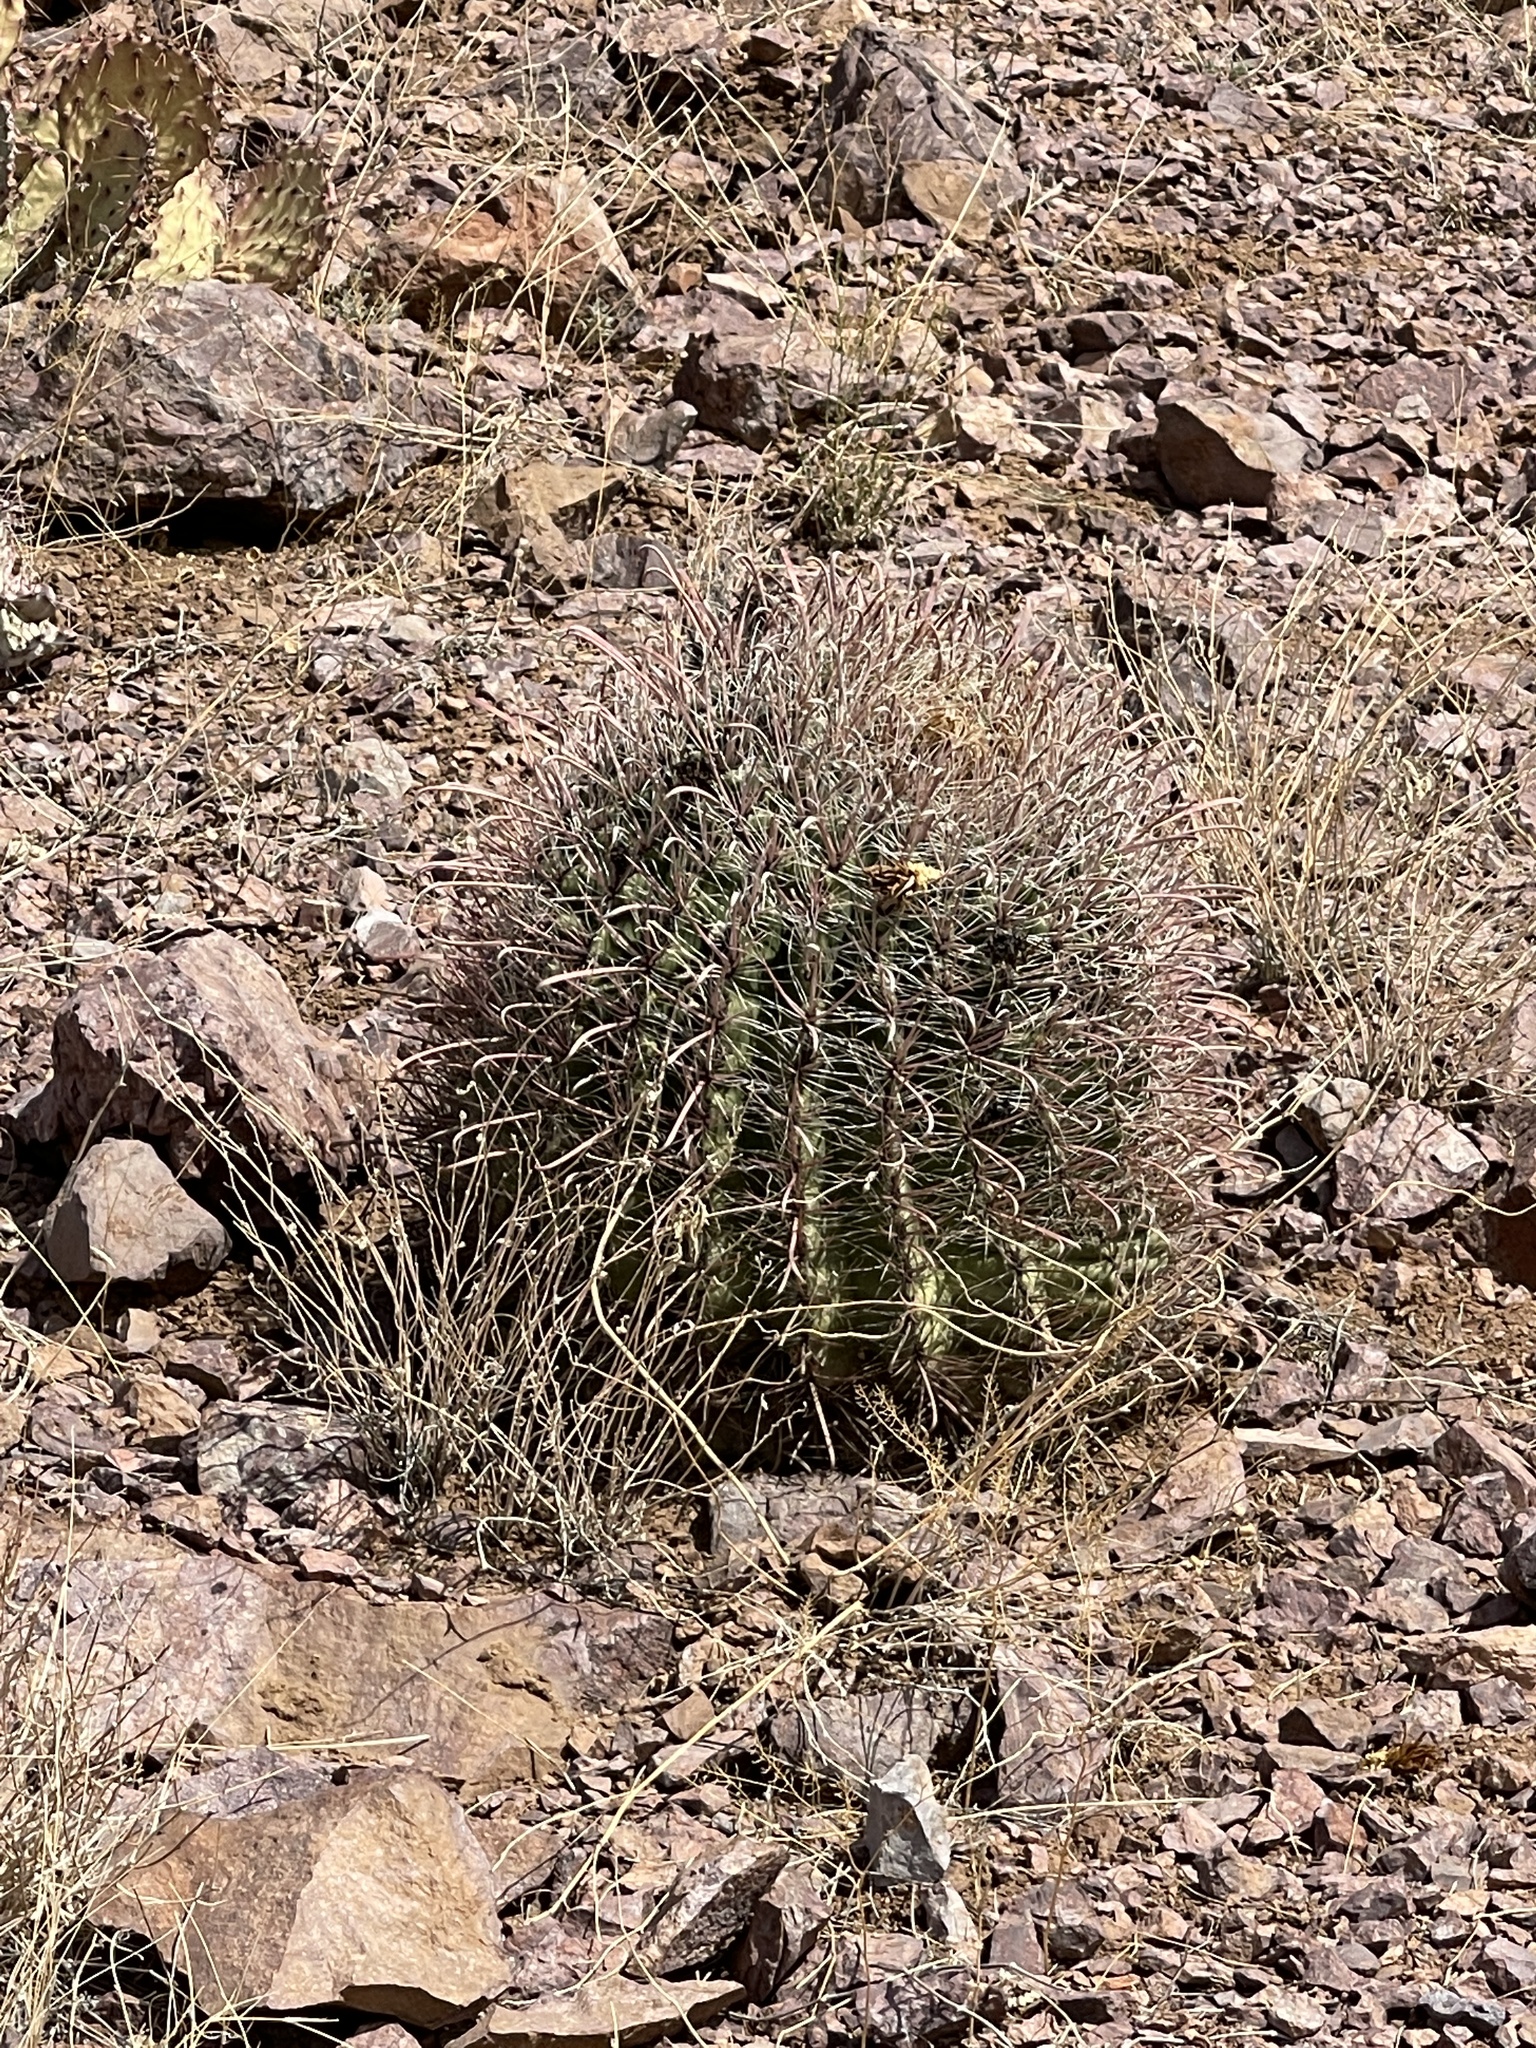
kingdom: Plantae
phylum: Tracheophyta
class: Magnoliopsida
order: Caryophyllales
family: Cactaceae
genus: Ferocactus
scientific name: Ferocactus wislizeni
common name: Candy barrel cactus
